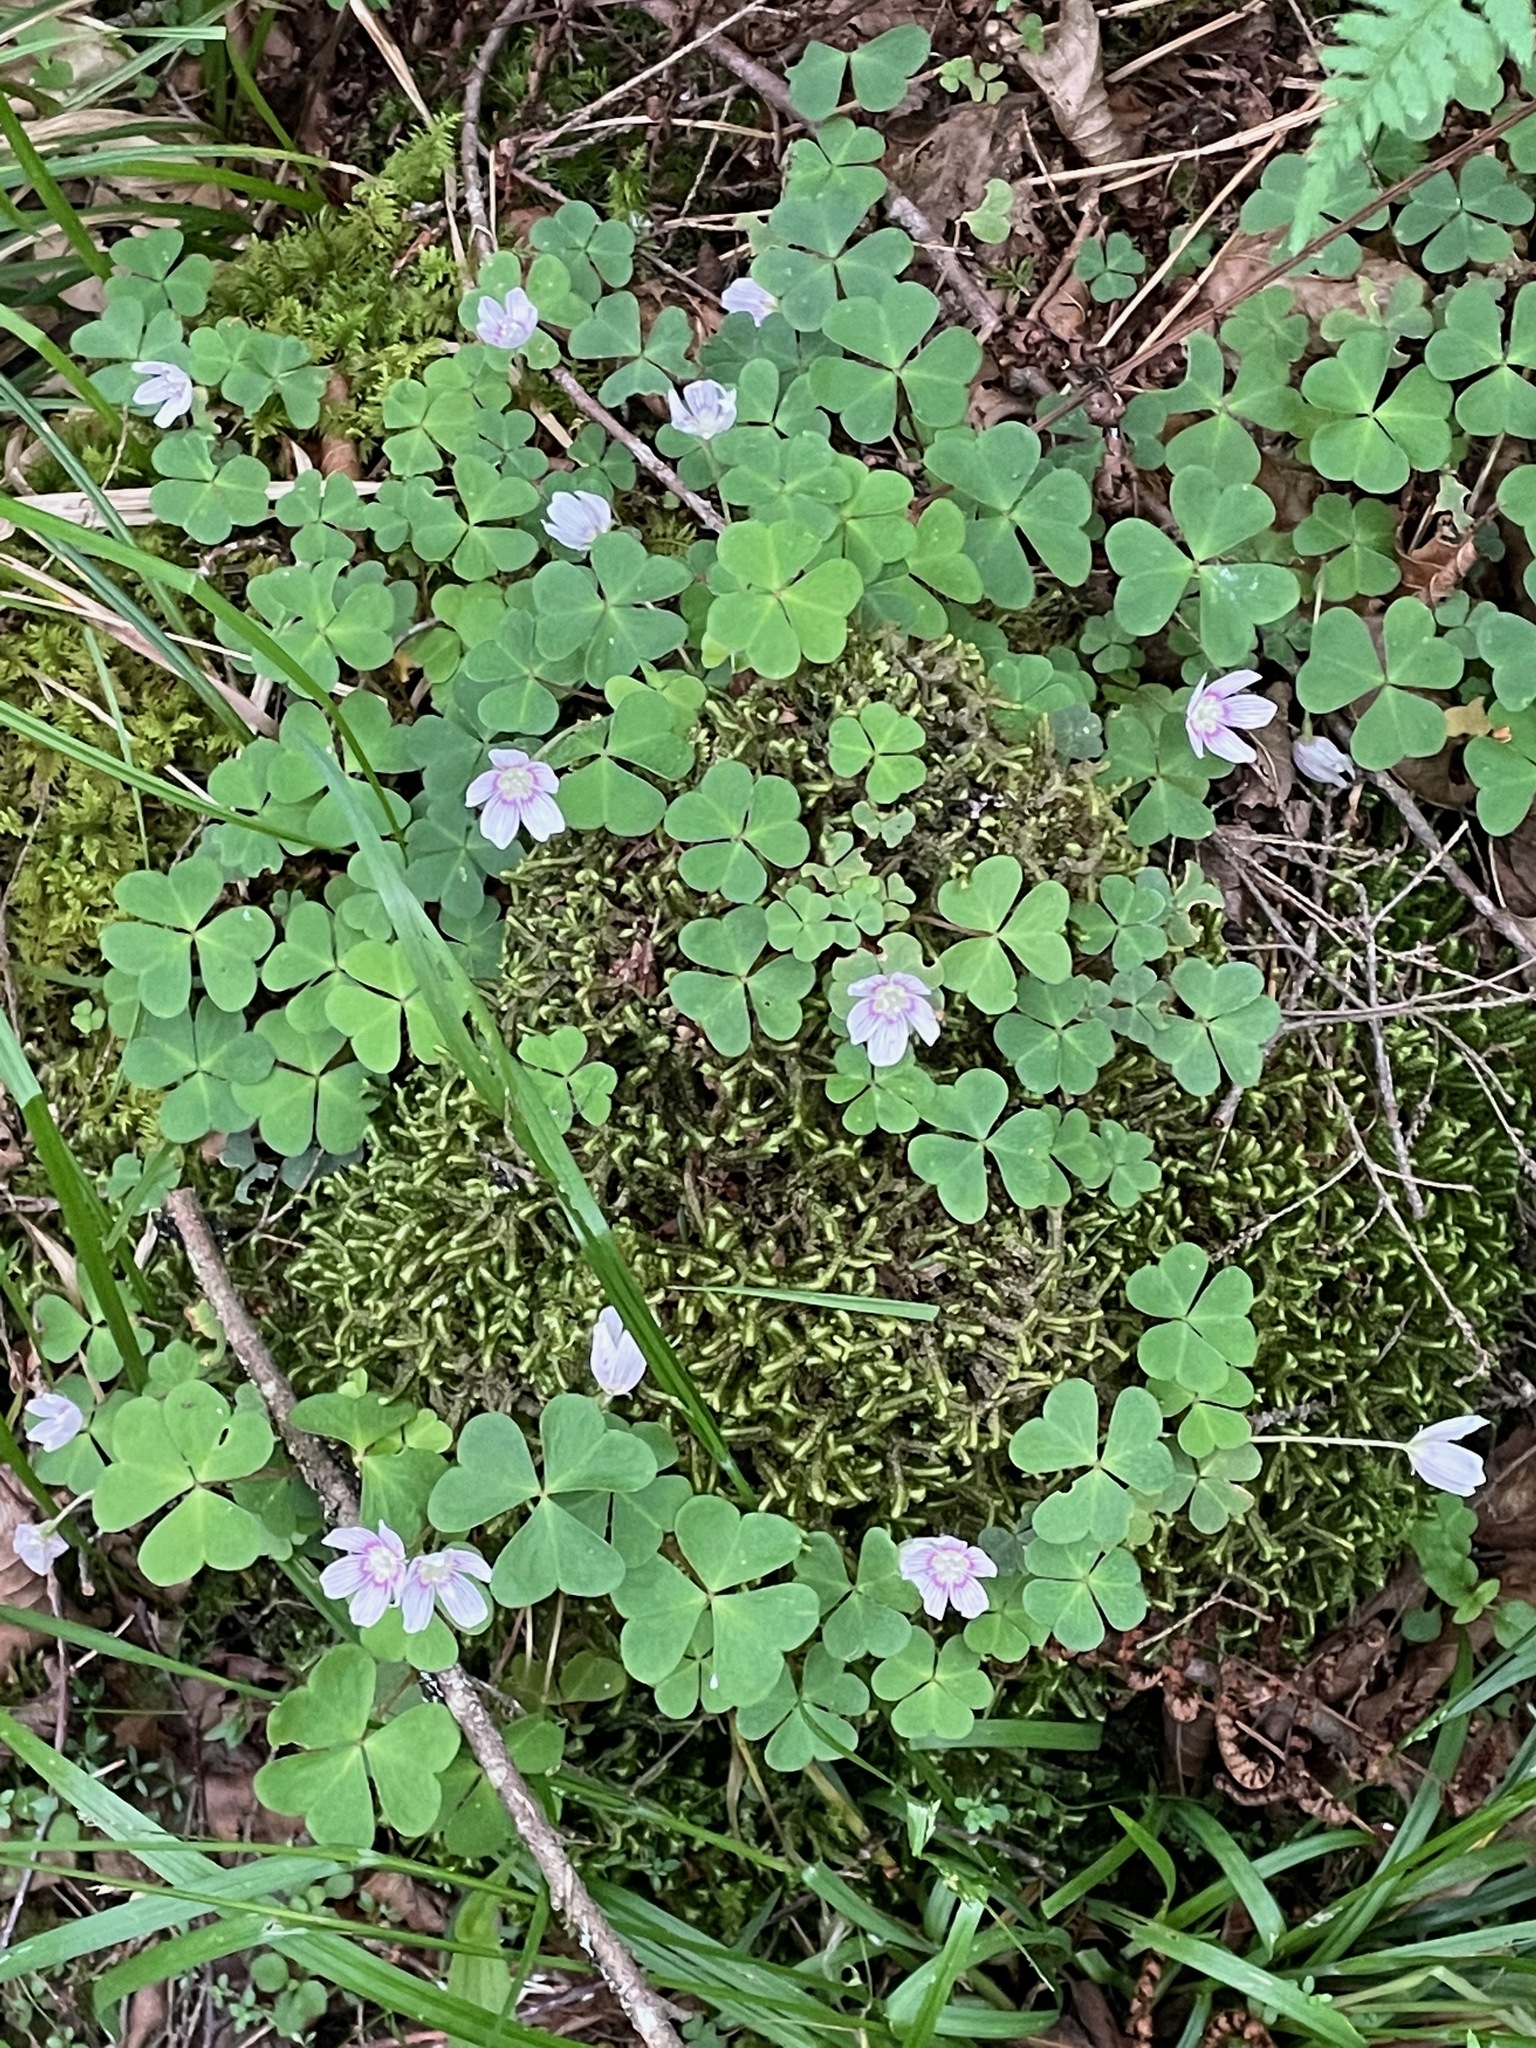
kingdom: Plantae
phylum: Tracheophyta
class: Magnoliopsida
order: Oxalidales
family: Oxalidaceae
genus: Oxalis
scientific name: Oxalis montana
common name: American wood-sorrel
